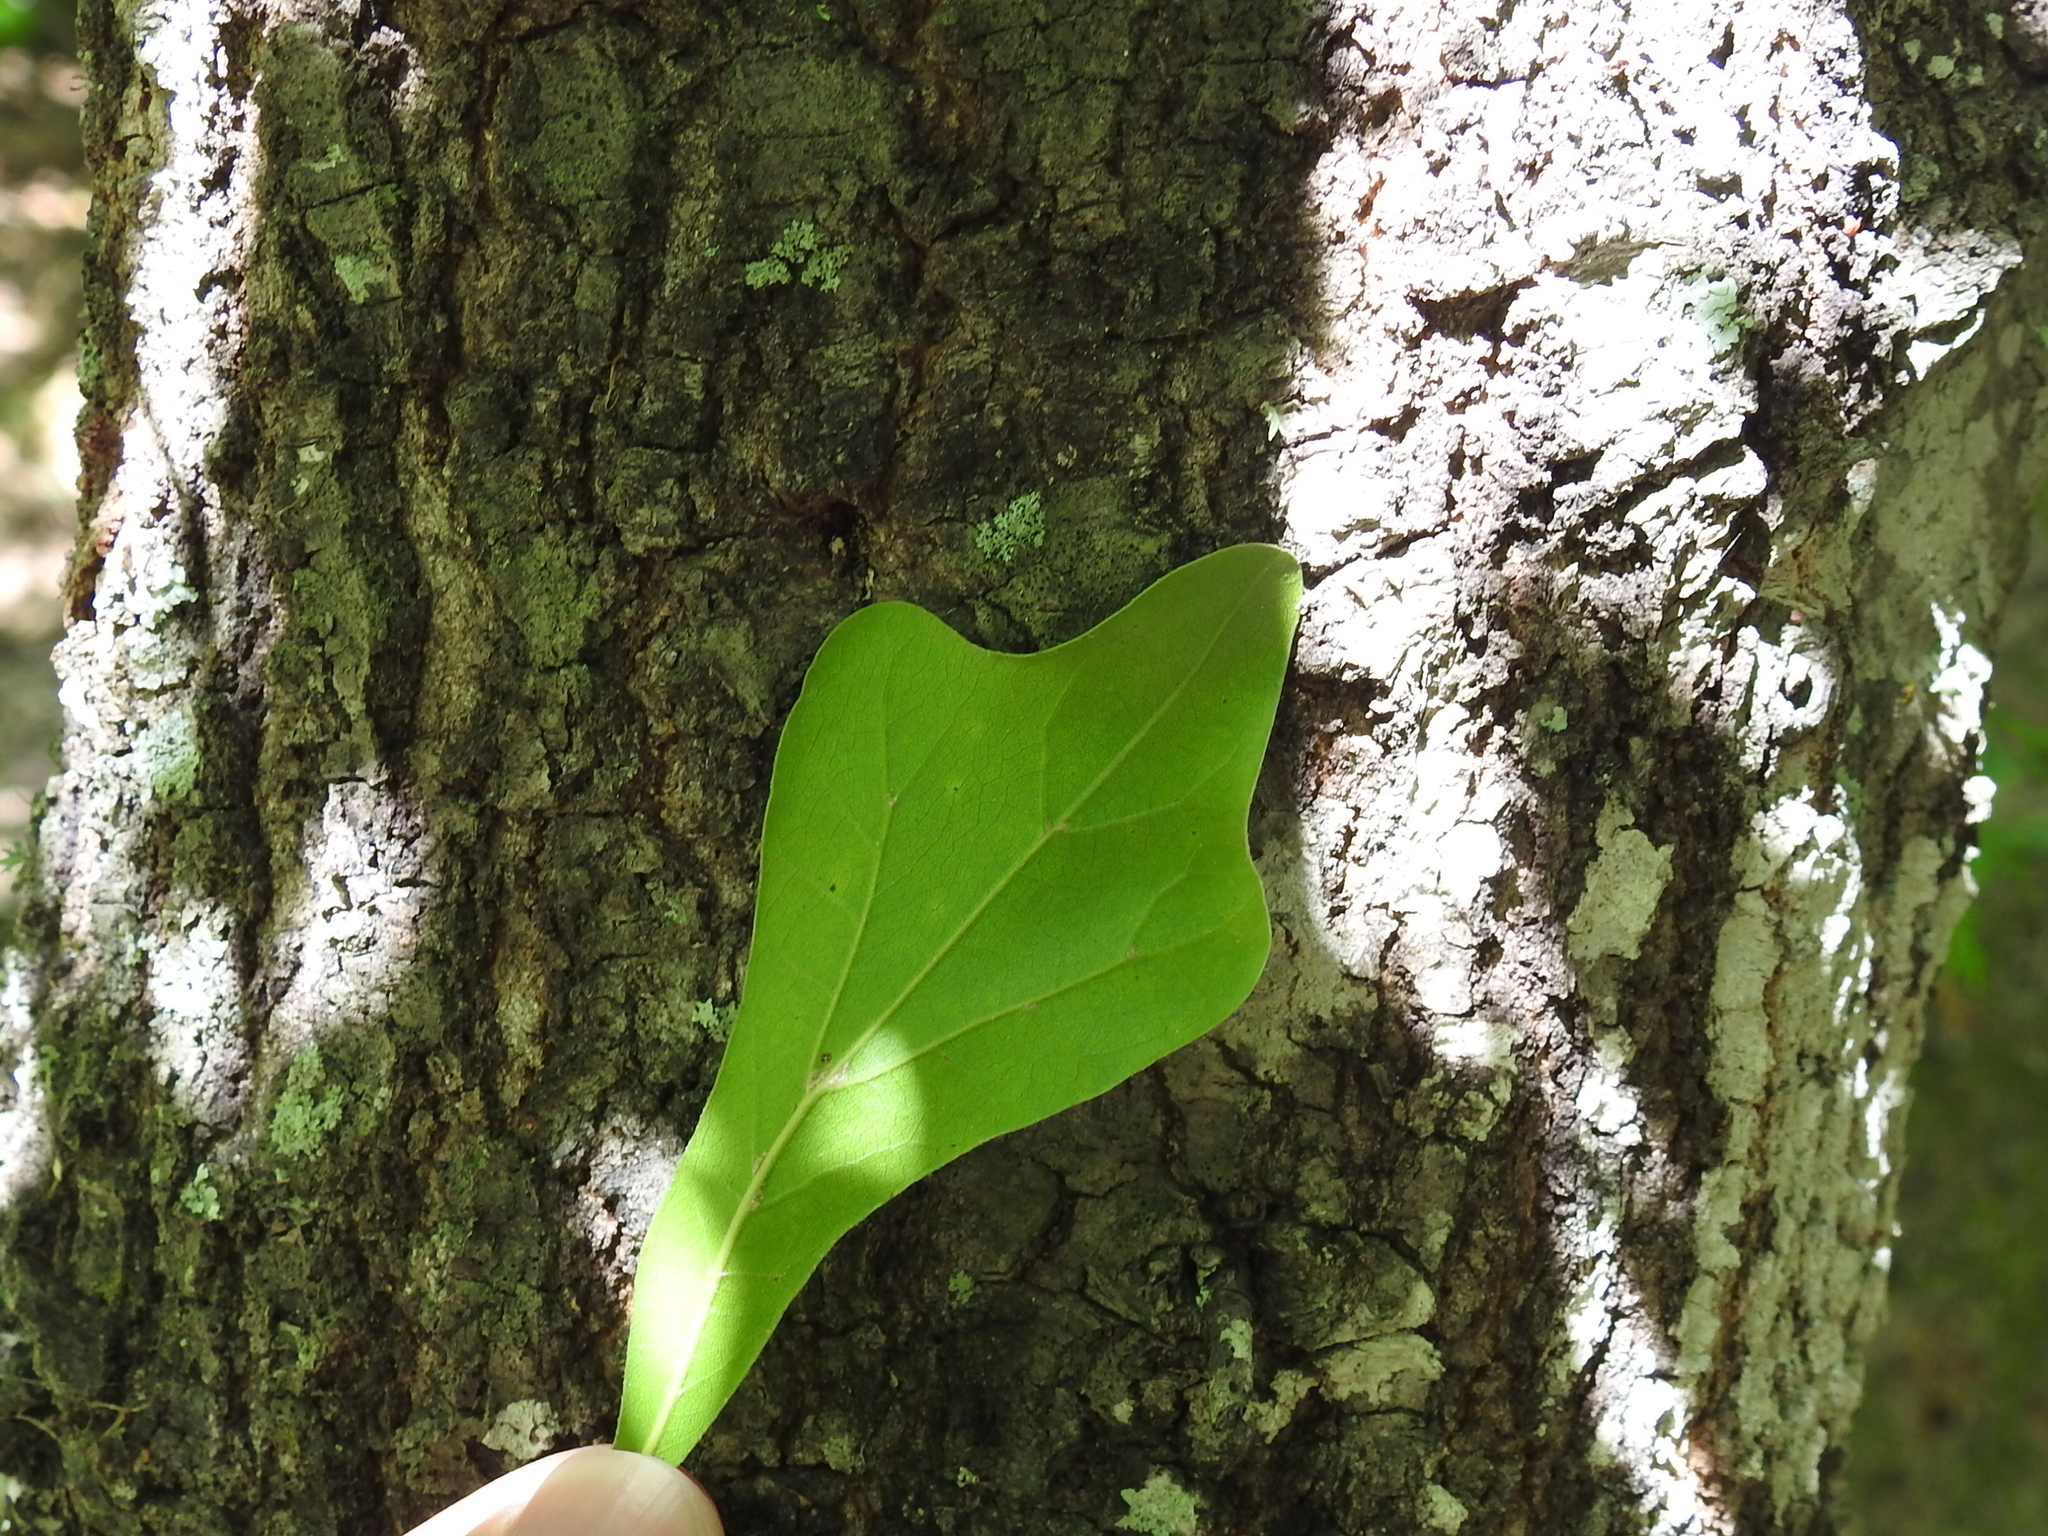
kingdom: Plantae
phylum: Tracheophyta
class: Magnoliopsida
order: Fagales
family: Fagaceae
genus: Quercus
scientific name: Quercus nigra
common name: Water oak
